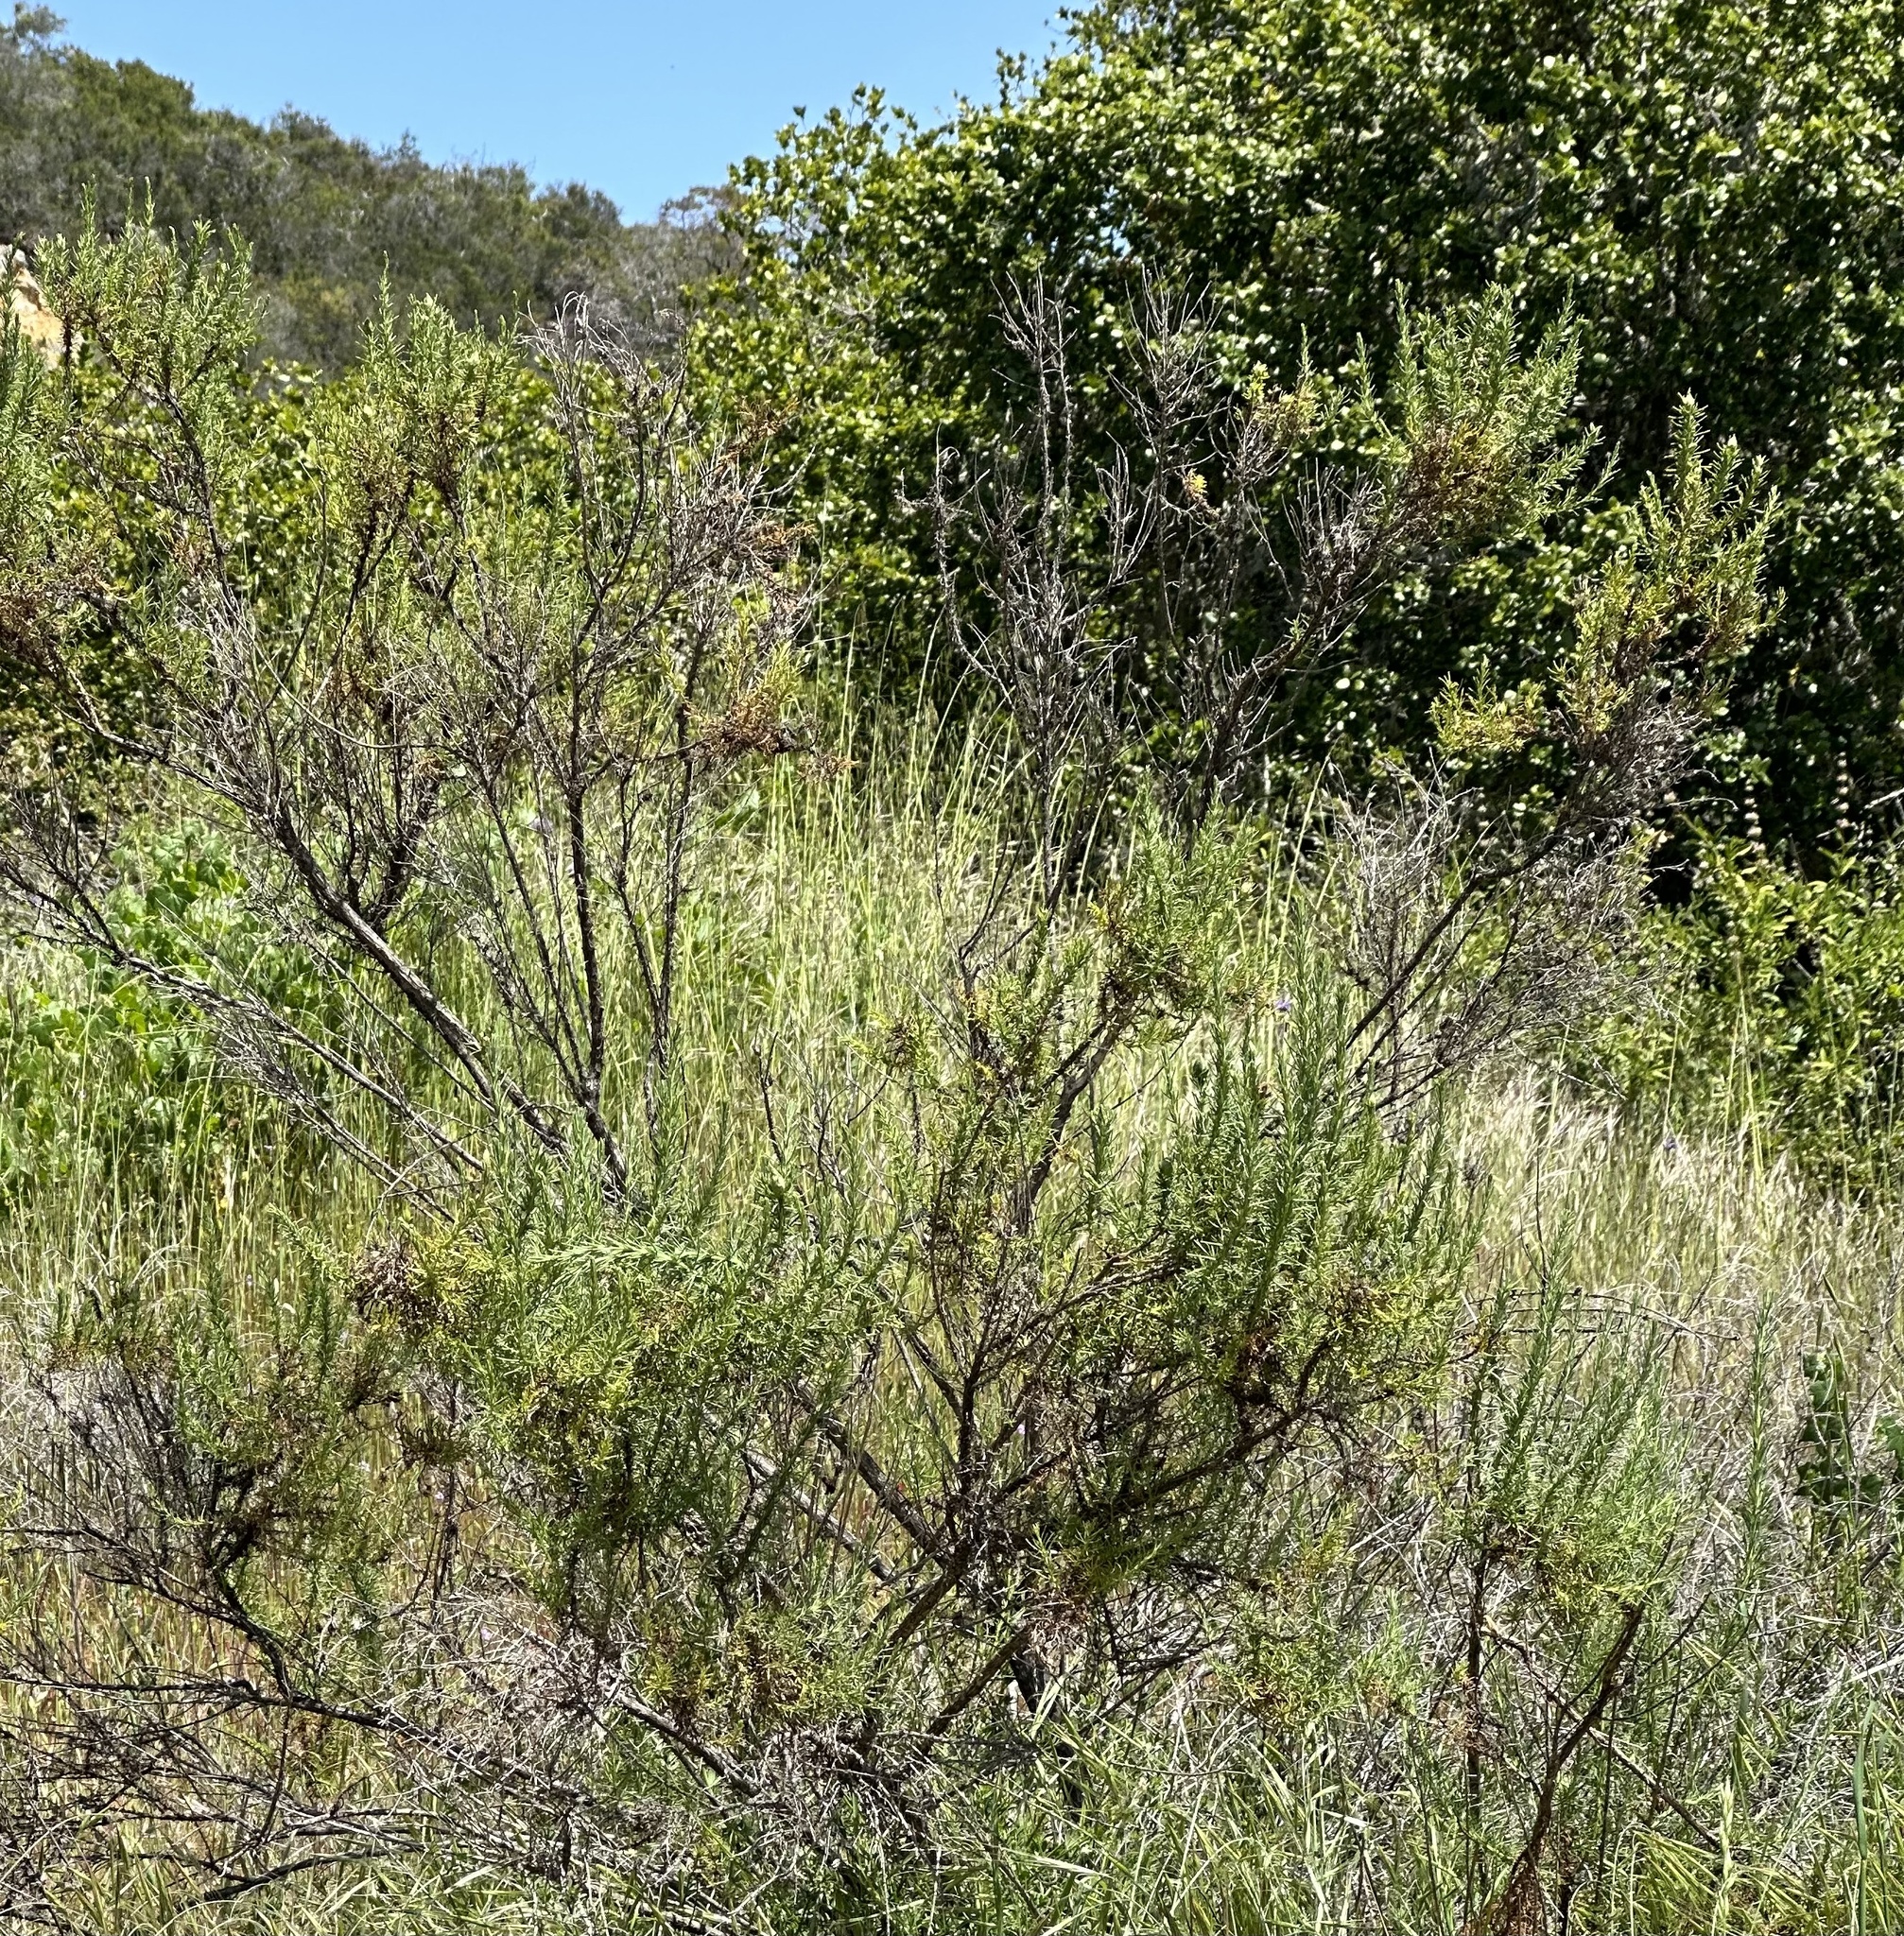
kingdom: Plantae
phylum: Tracheophyta
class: Magnoliopsida
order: Asterales
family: Asteraceae
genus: Ericameria
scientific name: Ericameria ericoides
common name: California goldenbush
